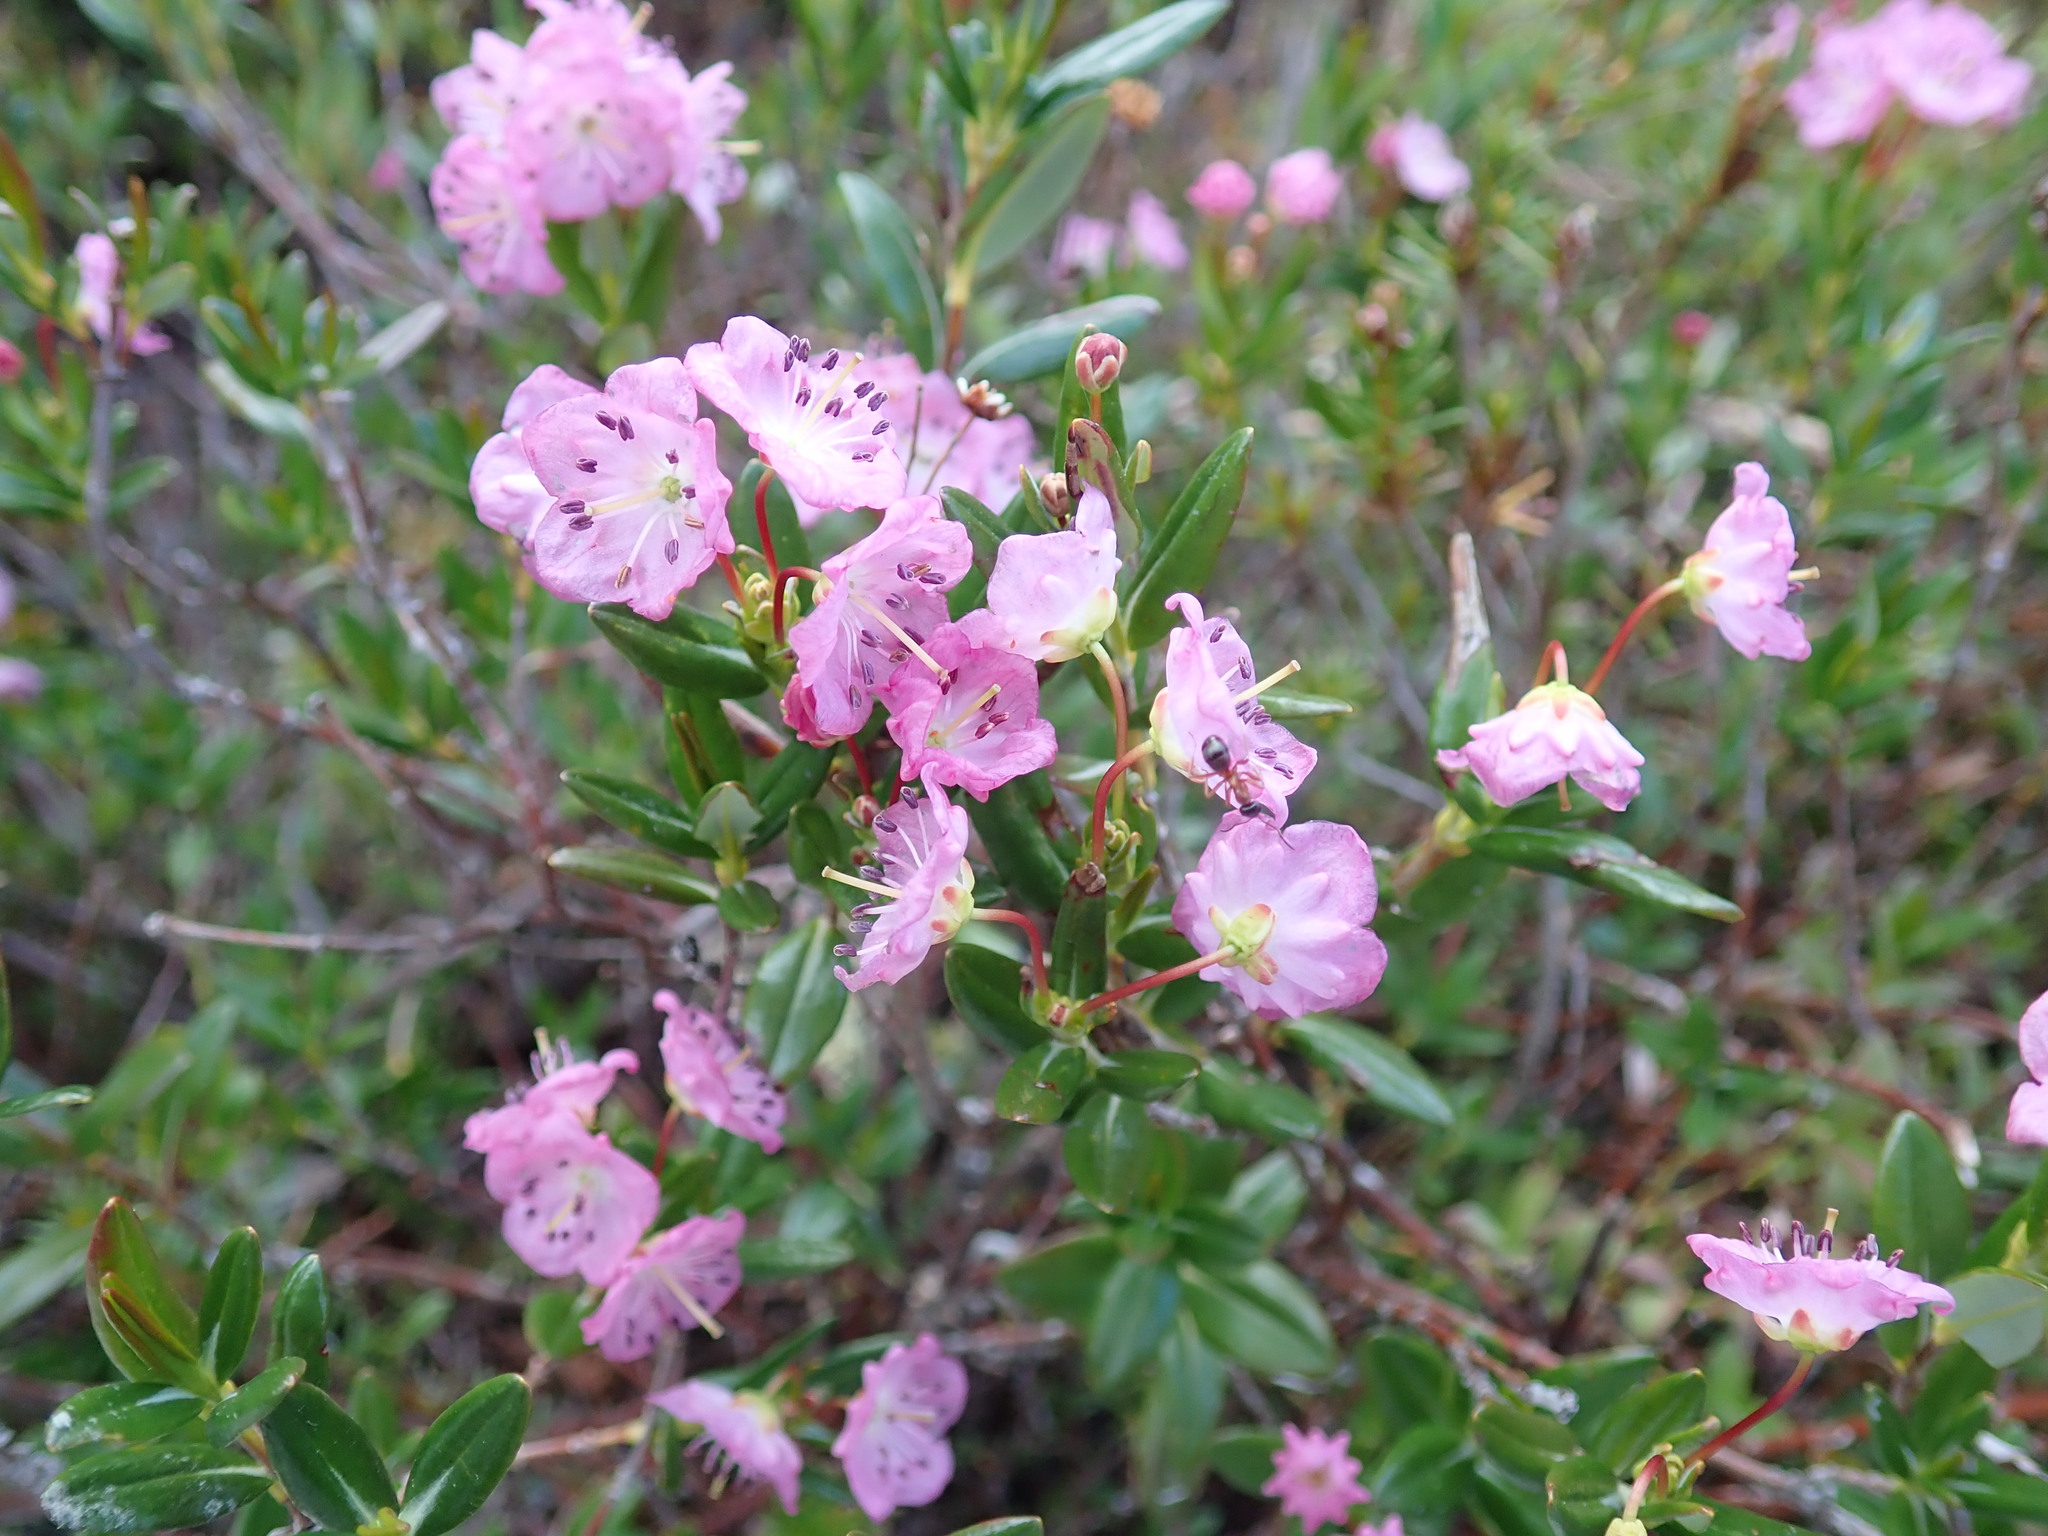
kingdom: Plantae
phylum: Tracheophyta
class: Magnoliopsida
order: Ericales
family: Ericaceae
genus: Kalmia
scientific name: Kalmia microphylla
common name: Alpine bog laurel
